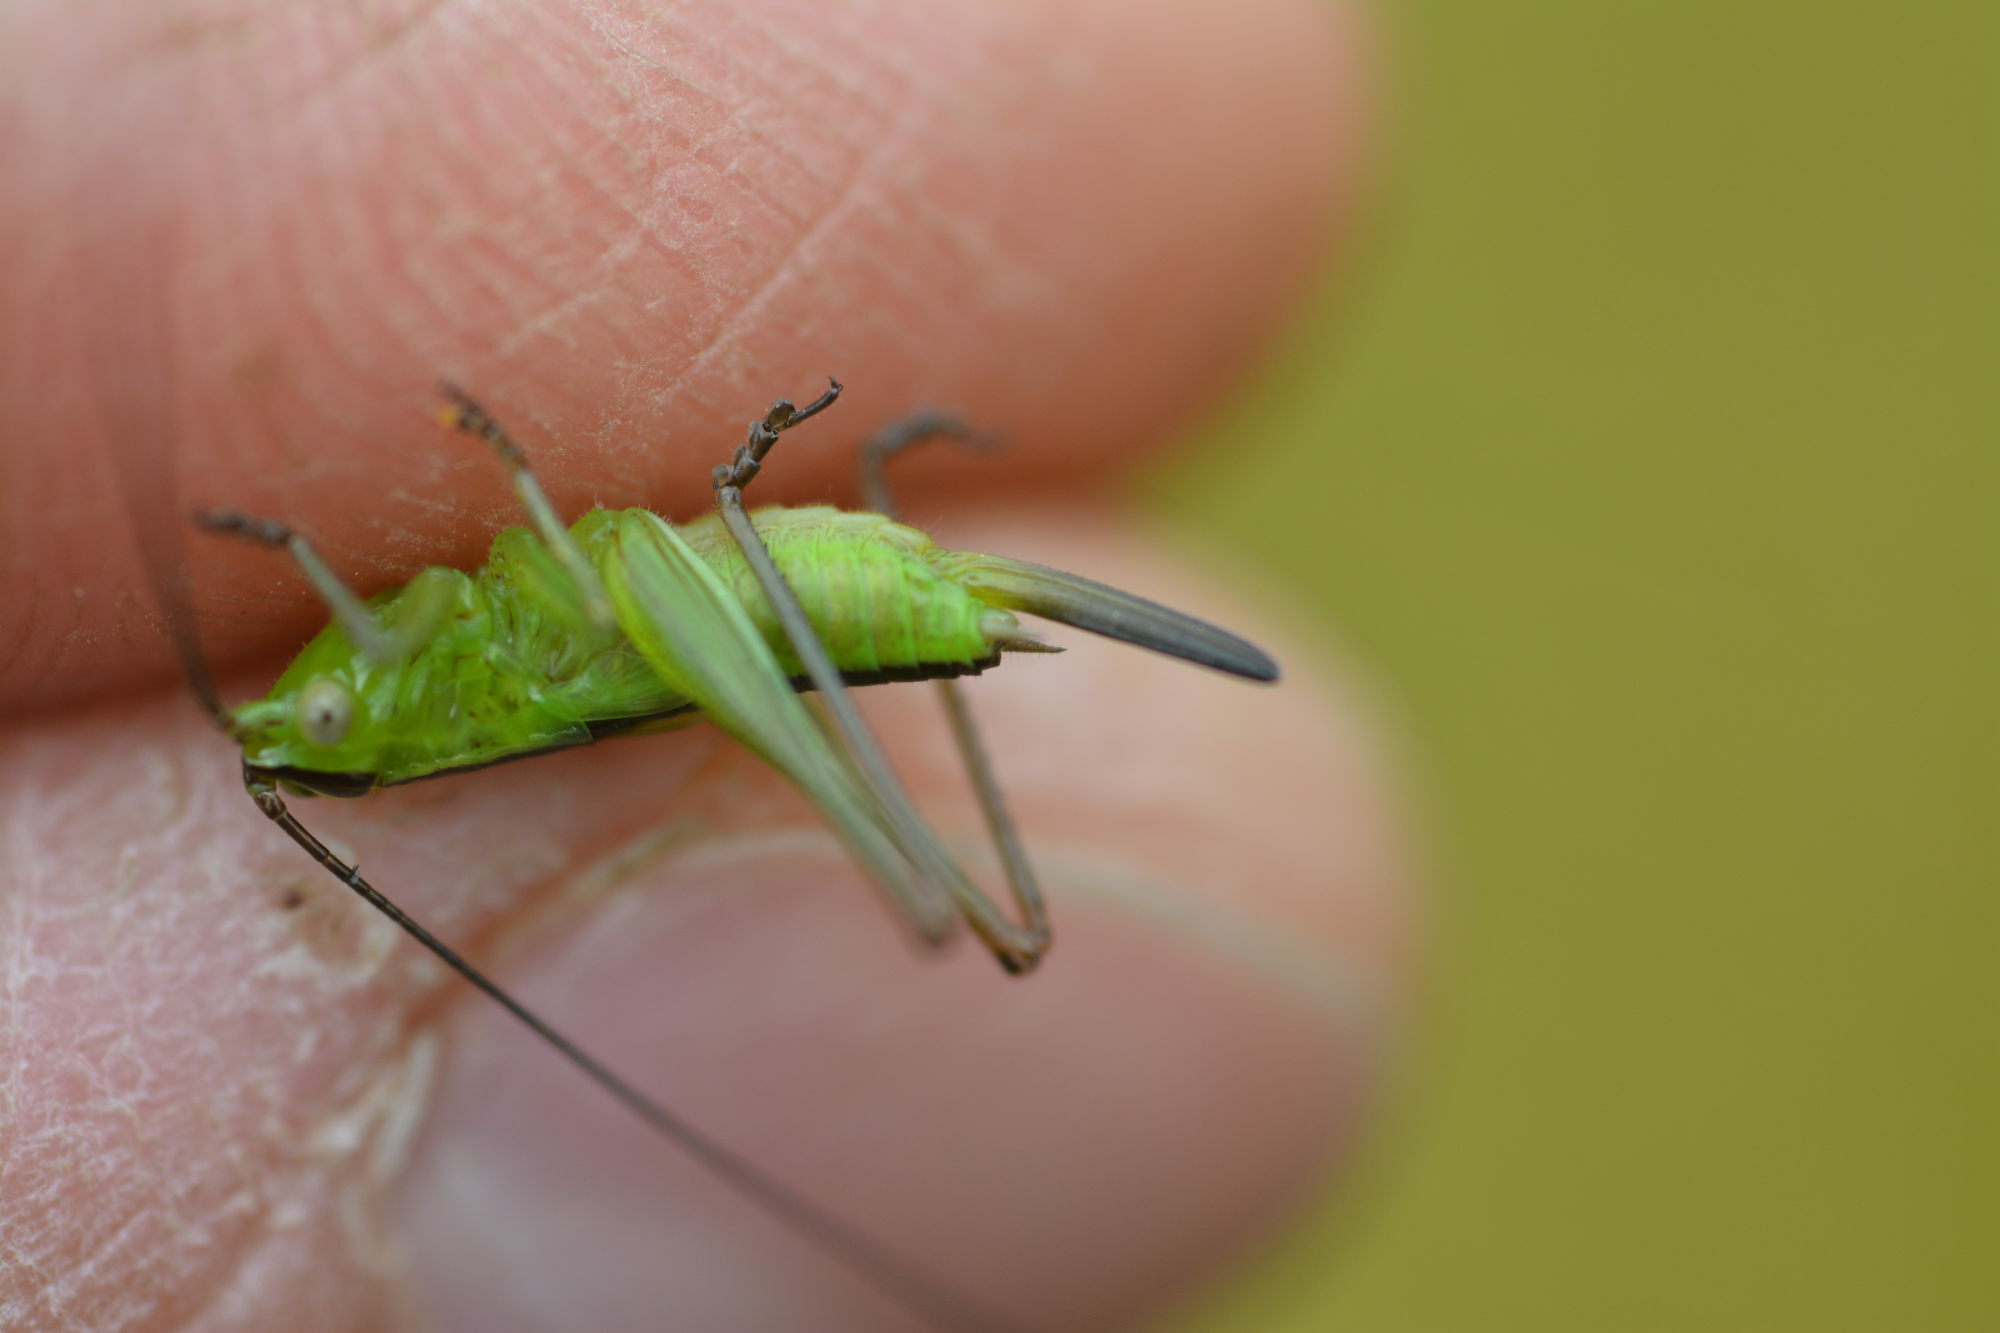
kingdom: Animalia
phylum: Arthropoda
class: Insecta
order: Orthoptera
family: Tettigoniidae
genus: Conocephalus
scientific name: Conocephalus fuscus
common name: Long-winged conehead
